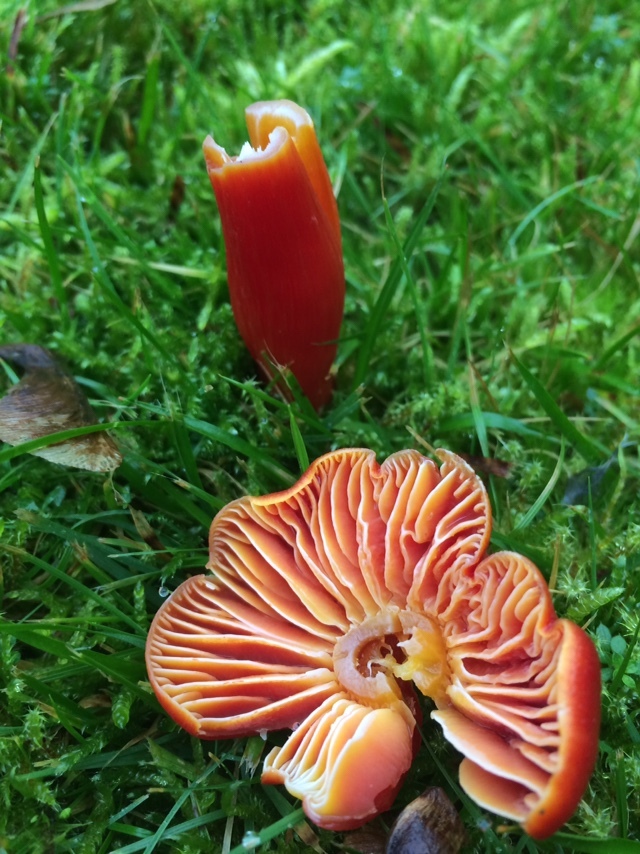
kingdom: Fungi
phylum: Basidiomycota
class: Agaricomycetes
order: Agaricales
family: Hygrophoraceae
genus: Hygrocybe
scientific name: Hygrocybe punicea
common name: Crimson waxcap
